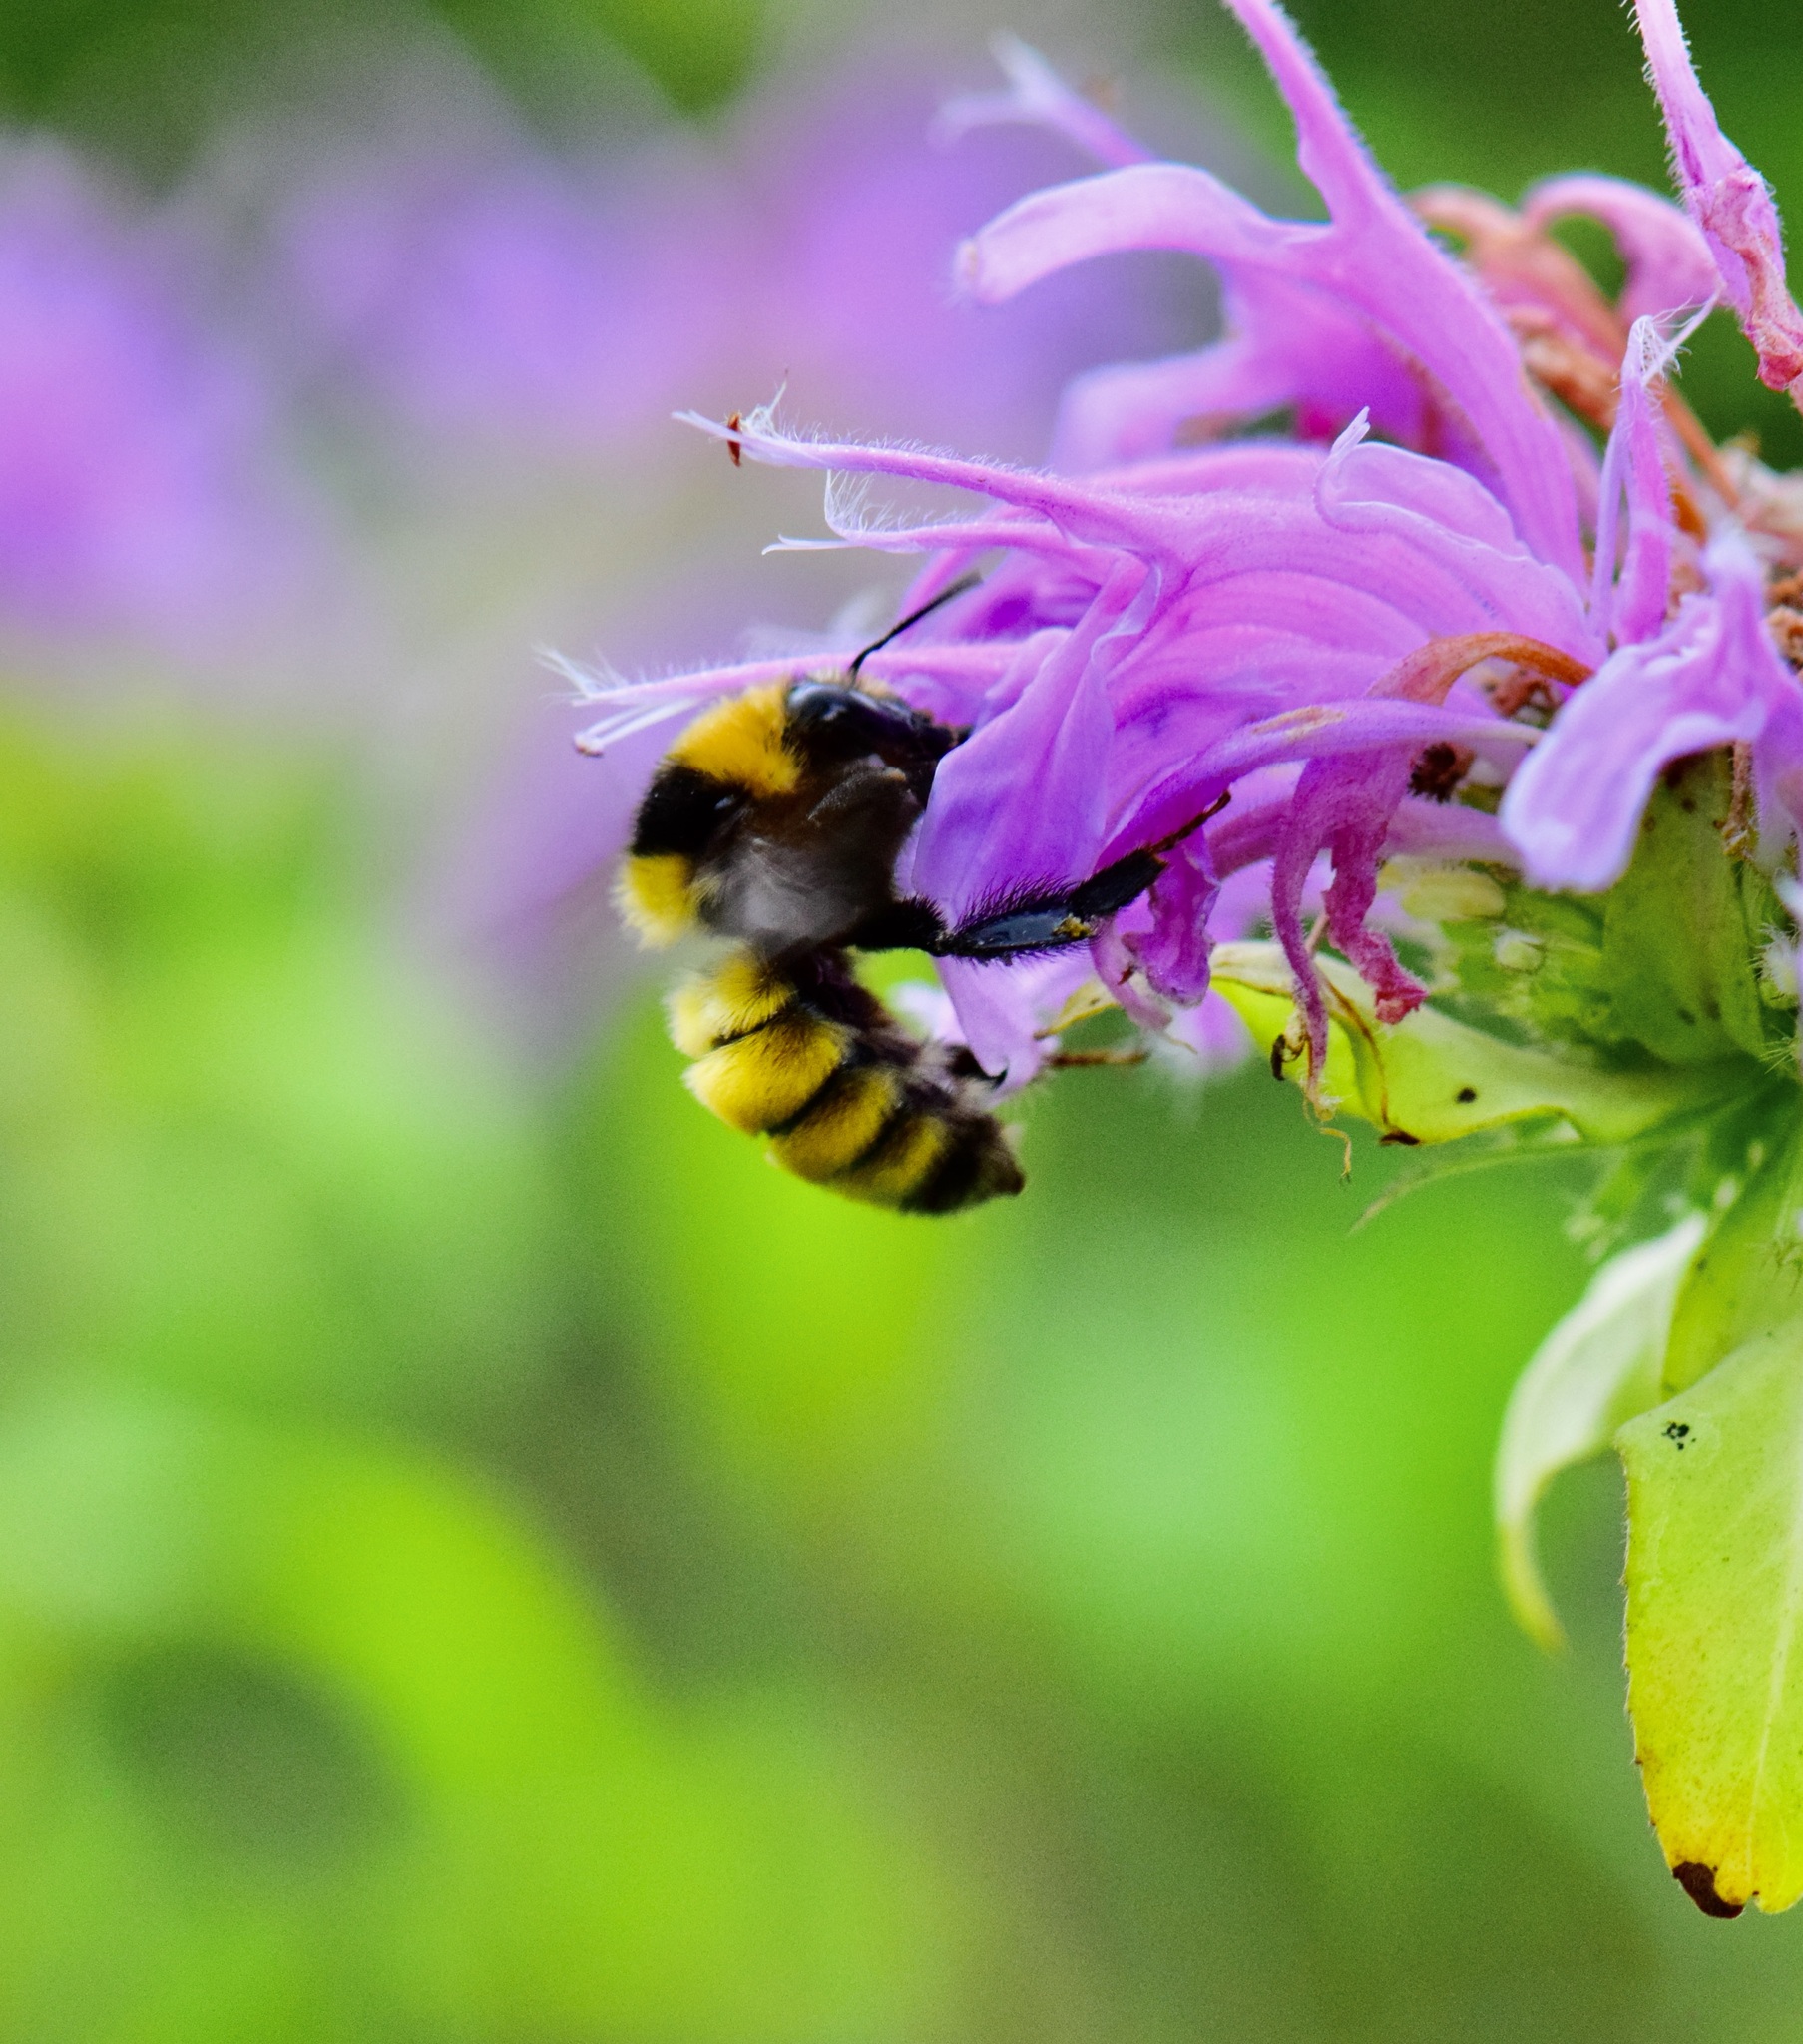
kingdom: Animalia
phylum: Arthropoda
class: Insecta
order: Hymenoptera
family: Apidae
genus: Bombus
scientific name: Bombus borealis
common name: Northern amber bumble bee
